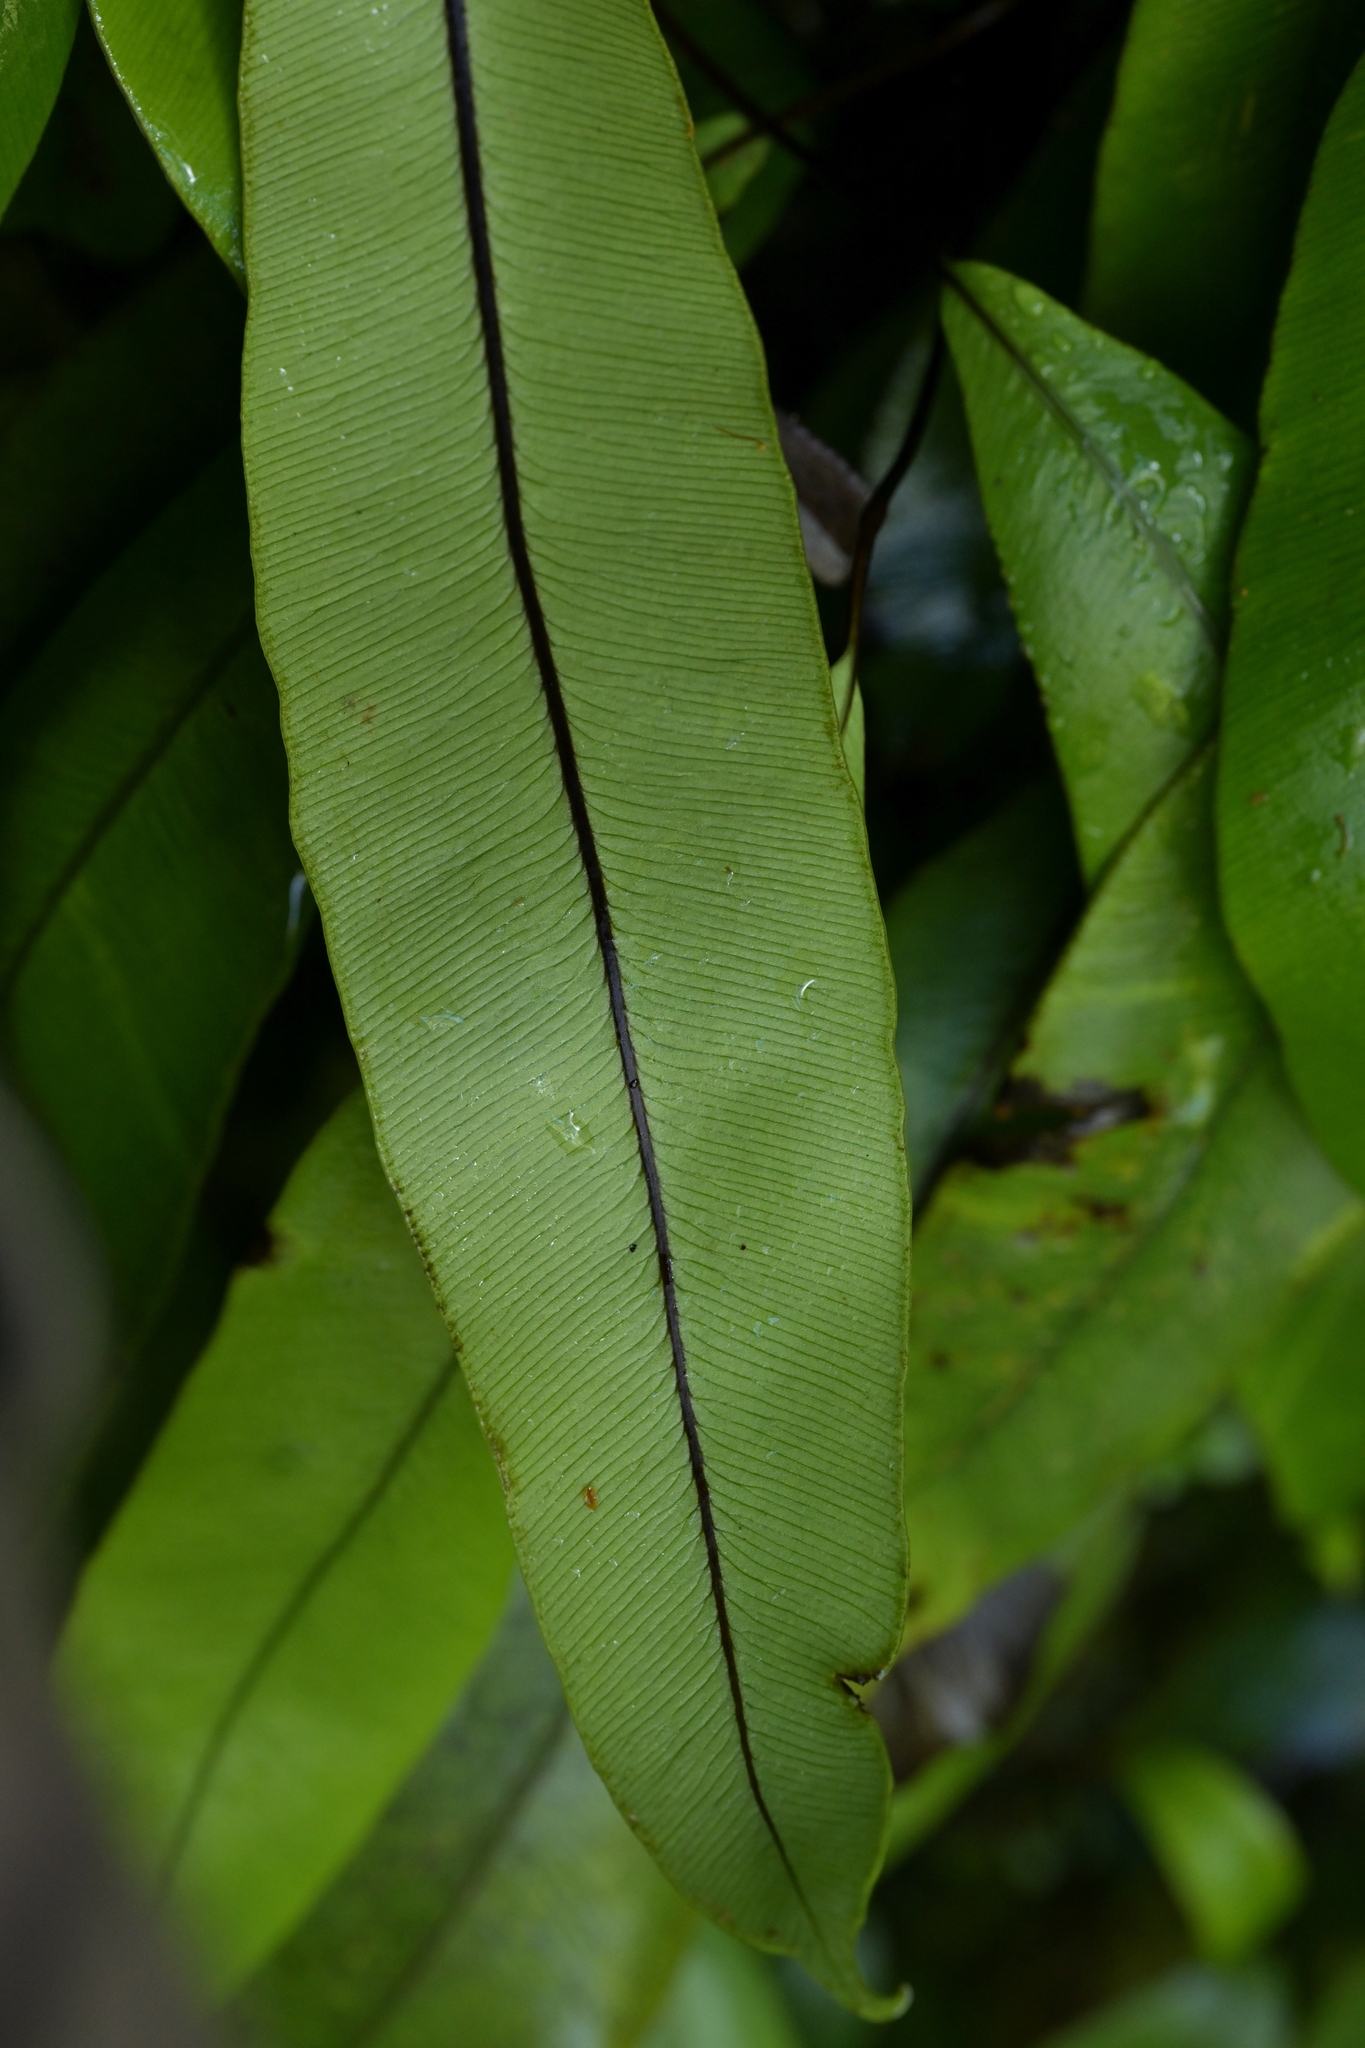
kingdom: Plantae
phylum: Tracheophyta
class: Polypodiopsida
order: Polypodiales
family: Blechnaceae
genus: Austroblechnum
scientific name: Austroblechnum colensoi
